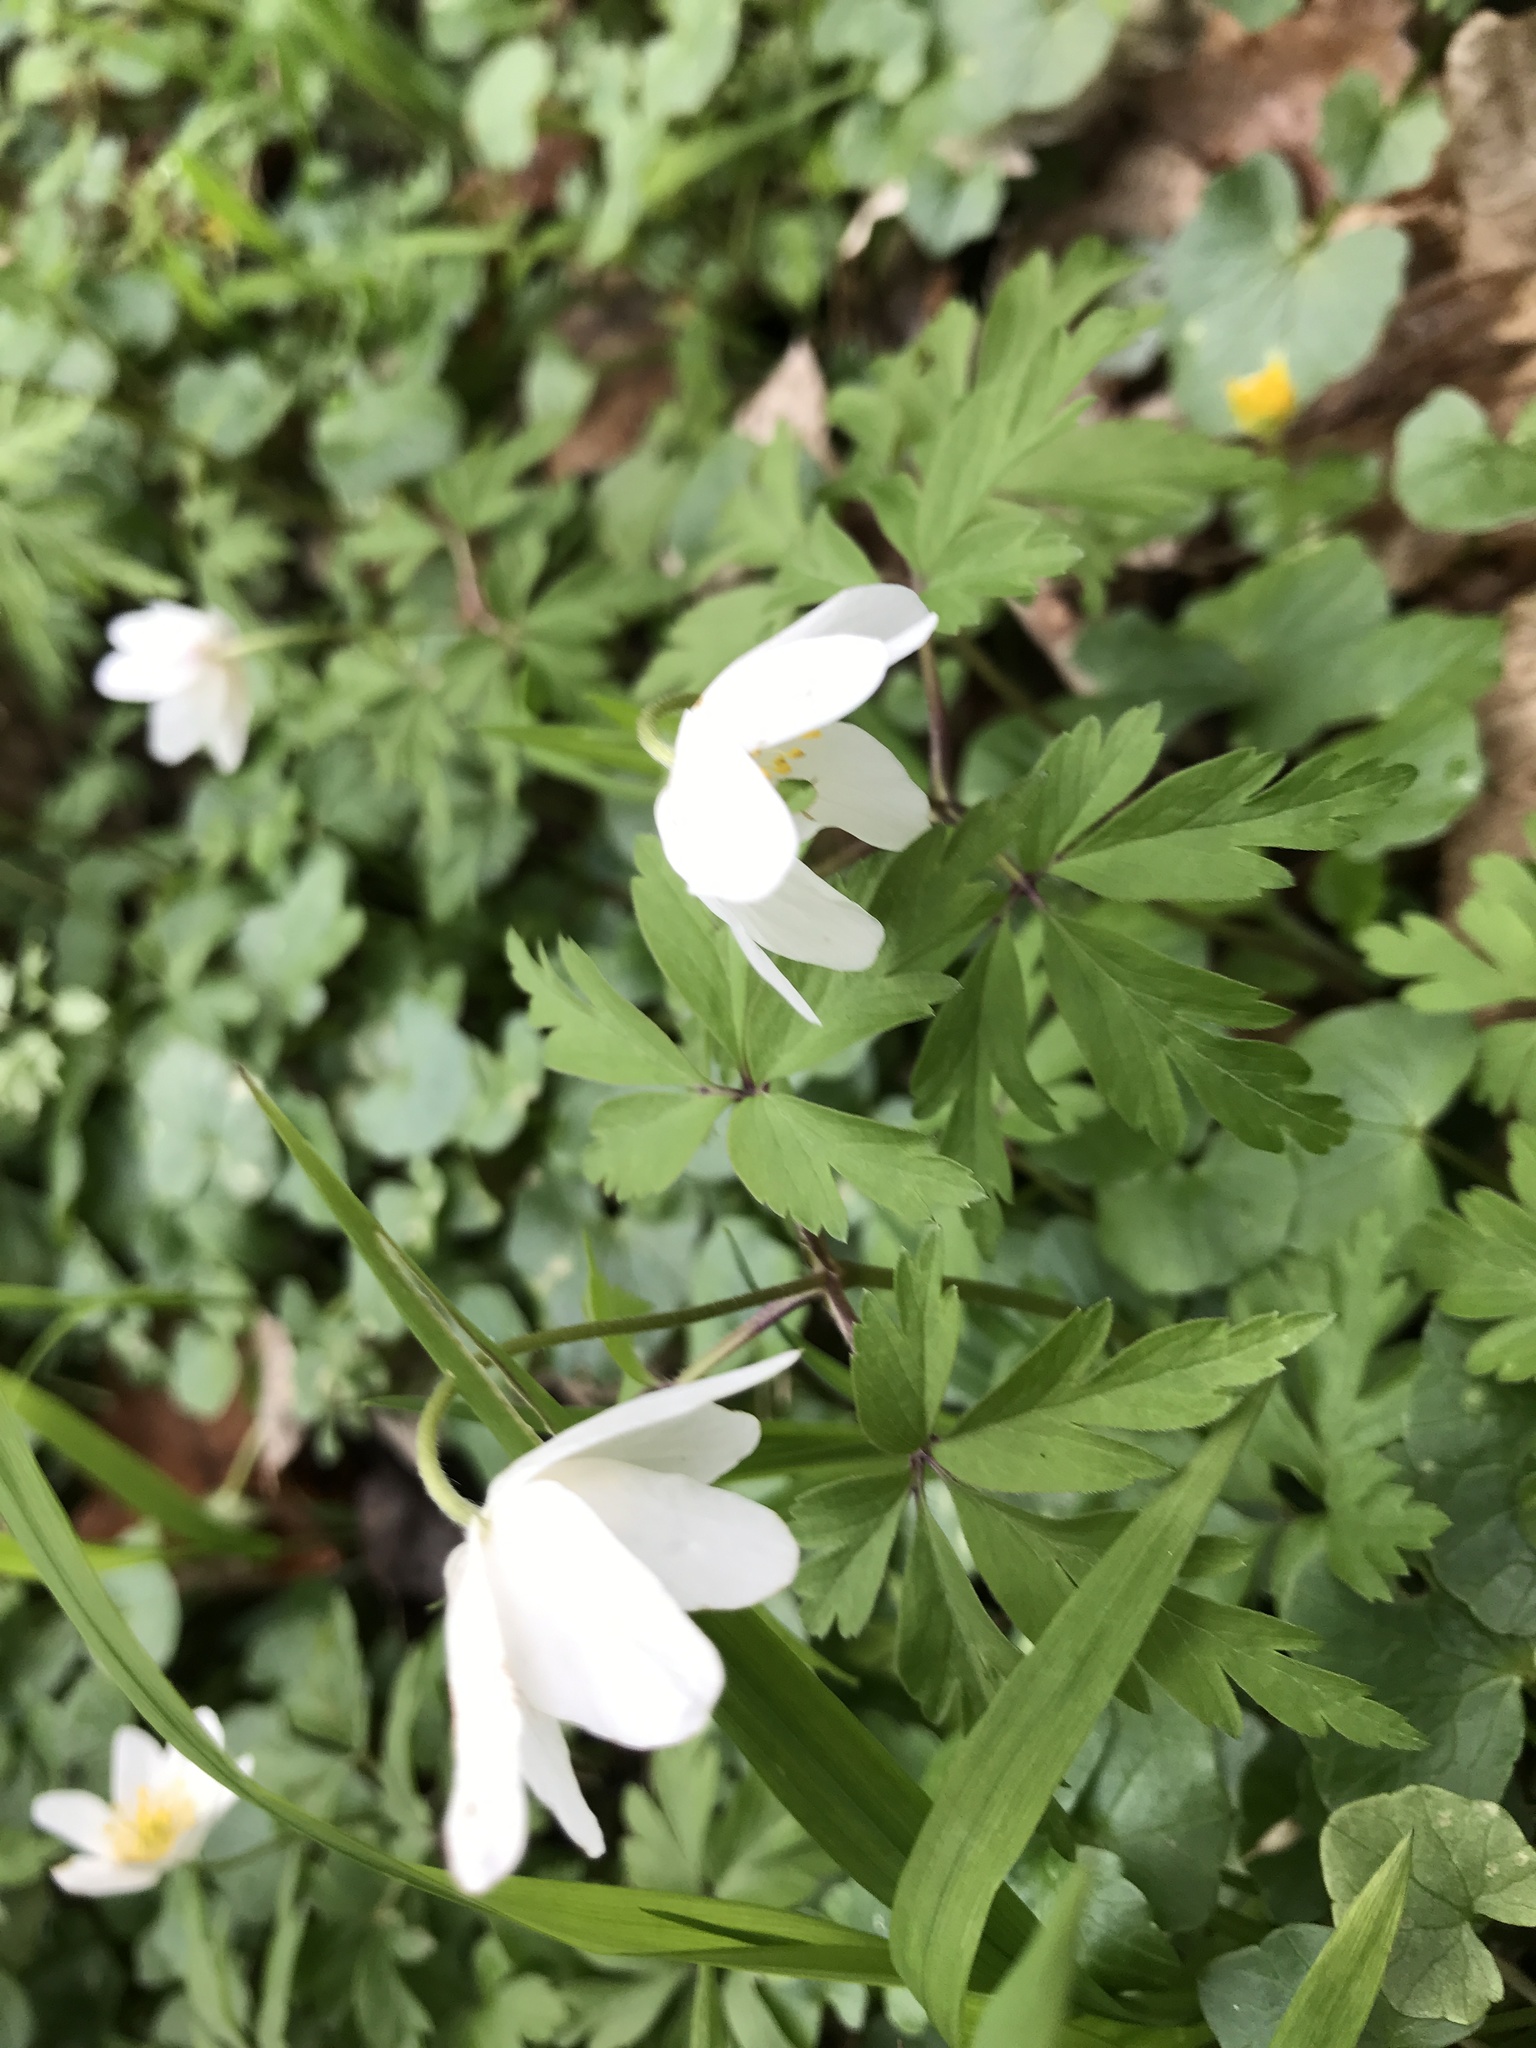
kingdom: Plantae
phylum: Tracheophyta
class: Magnoliopsida
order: Ranunculales
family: Ranunculaceae
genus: Anemone
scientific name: Anemone nemorosa
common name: Wood anemone
